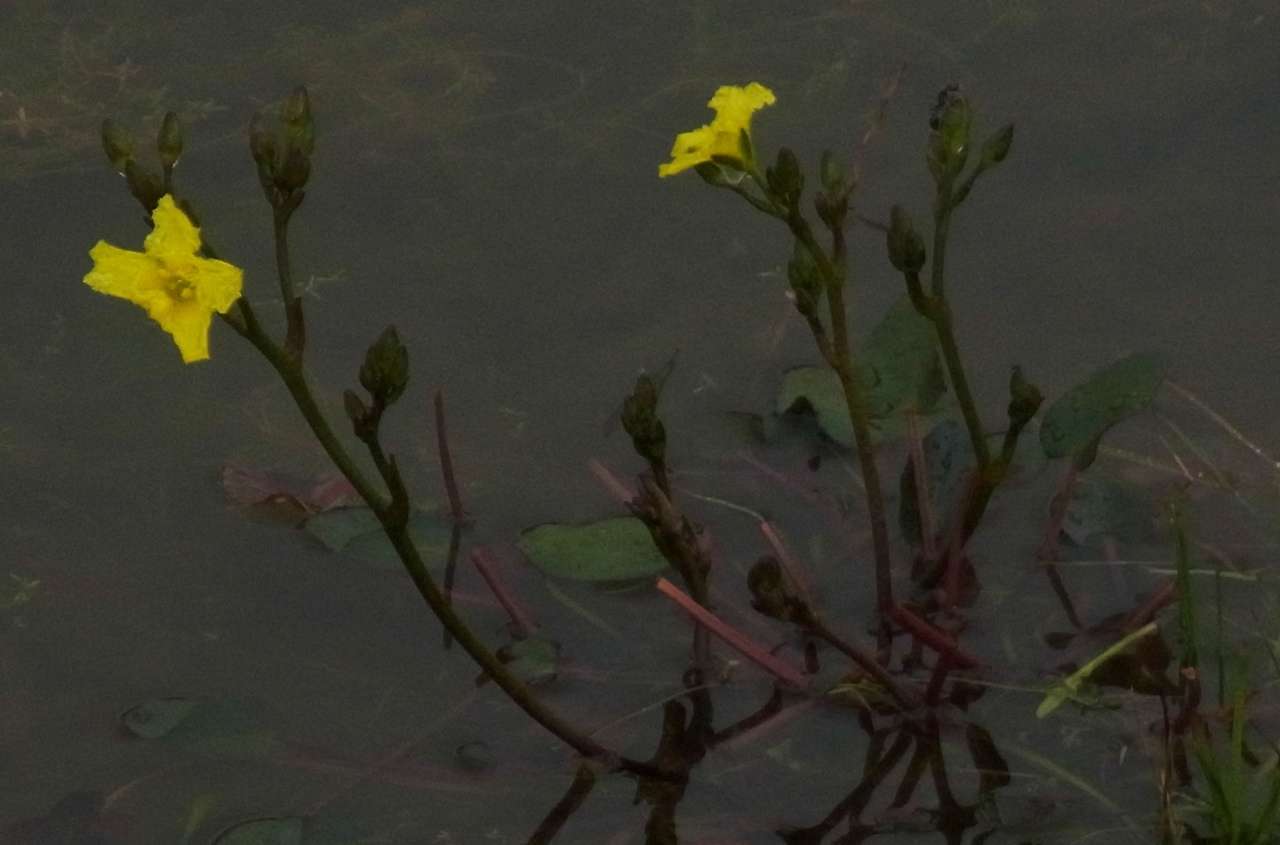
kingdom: Plantae
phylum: Tracheophyta
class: Magnoliopsida
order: Asterales
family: Menyanthaceae
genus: Ornduffia
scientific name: Ornduffia reniformis
